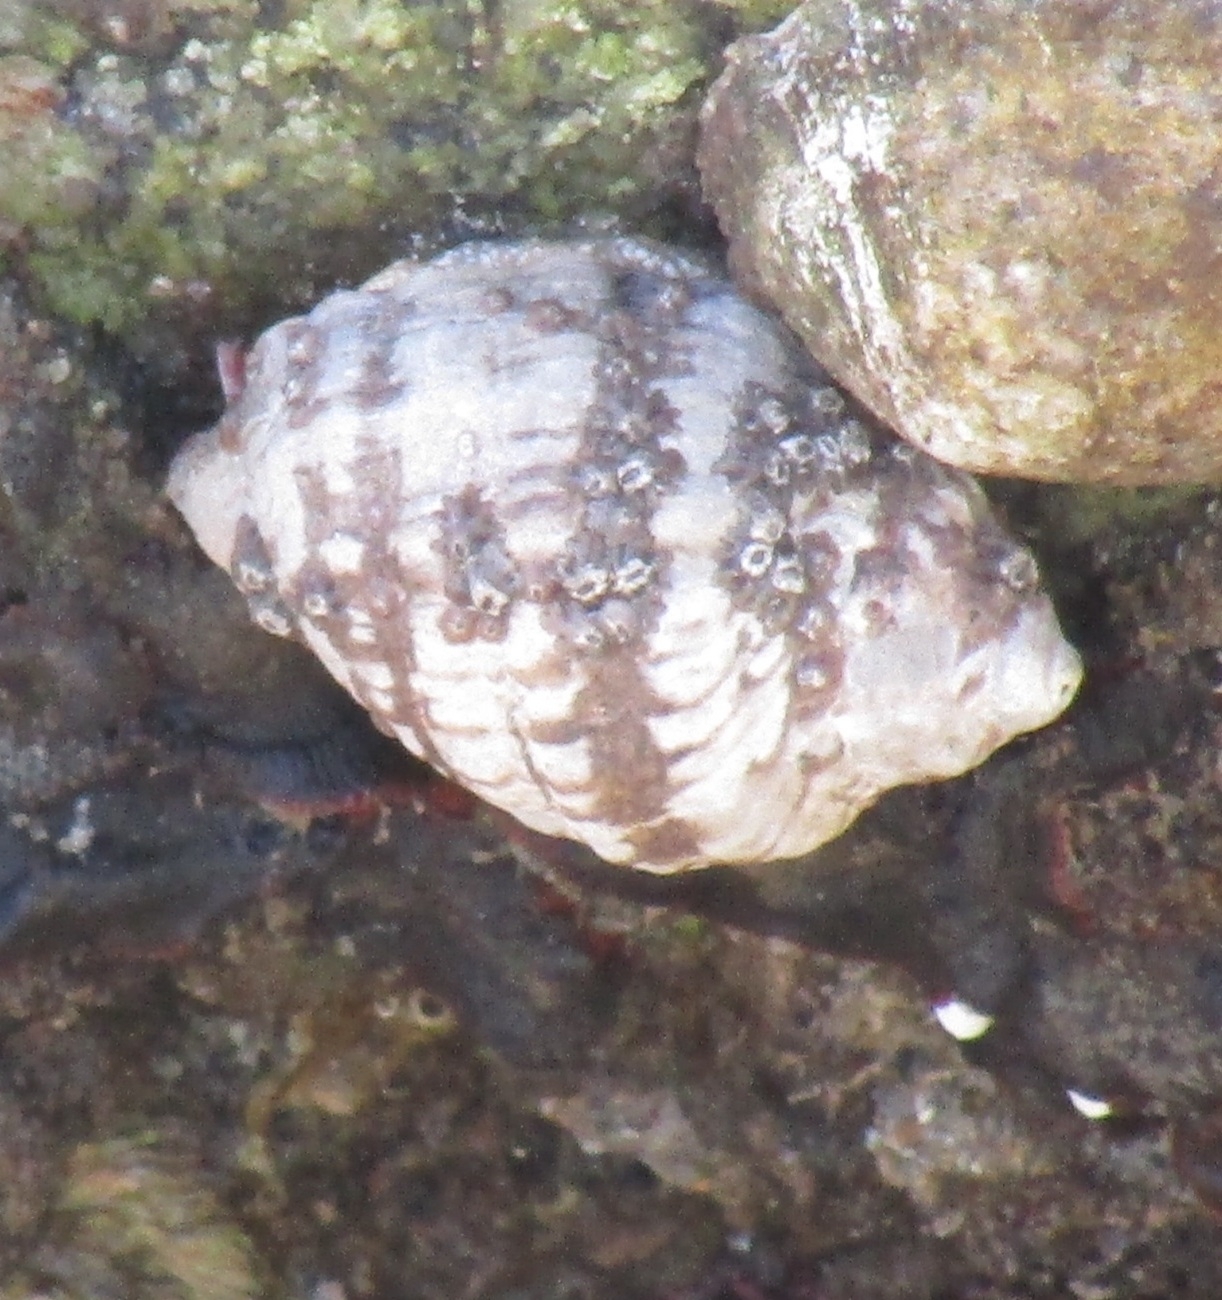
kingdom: Animalia
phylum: Mollusca
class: Gastropoda
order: Neogastropoda
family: Muricidae
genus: Mexacanthina
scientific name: Mexacanthina lugubris
